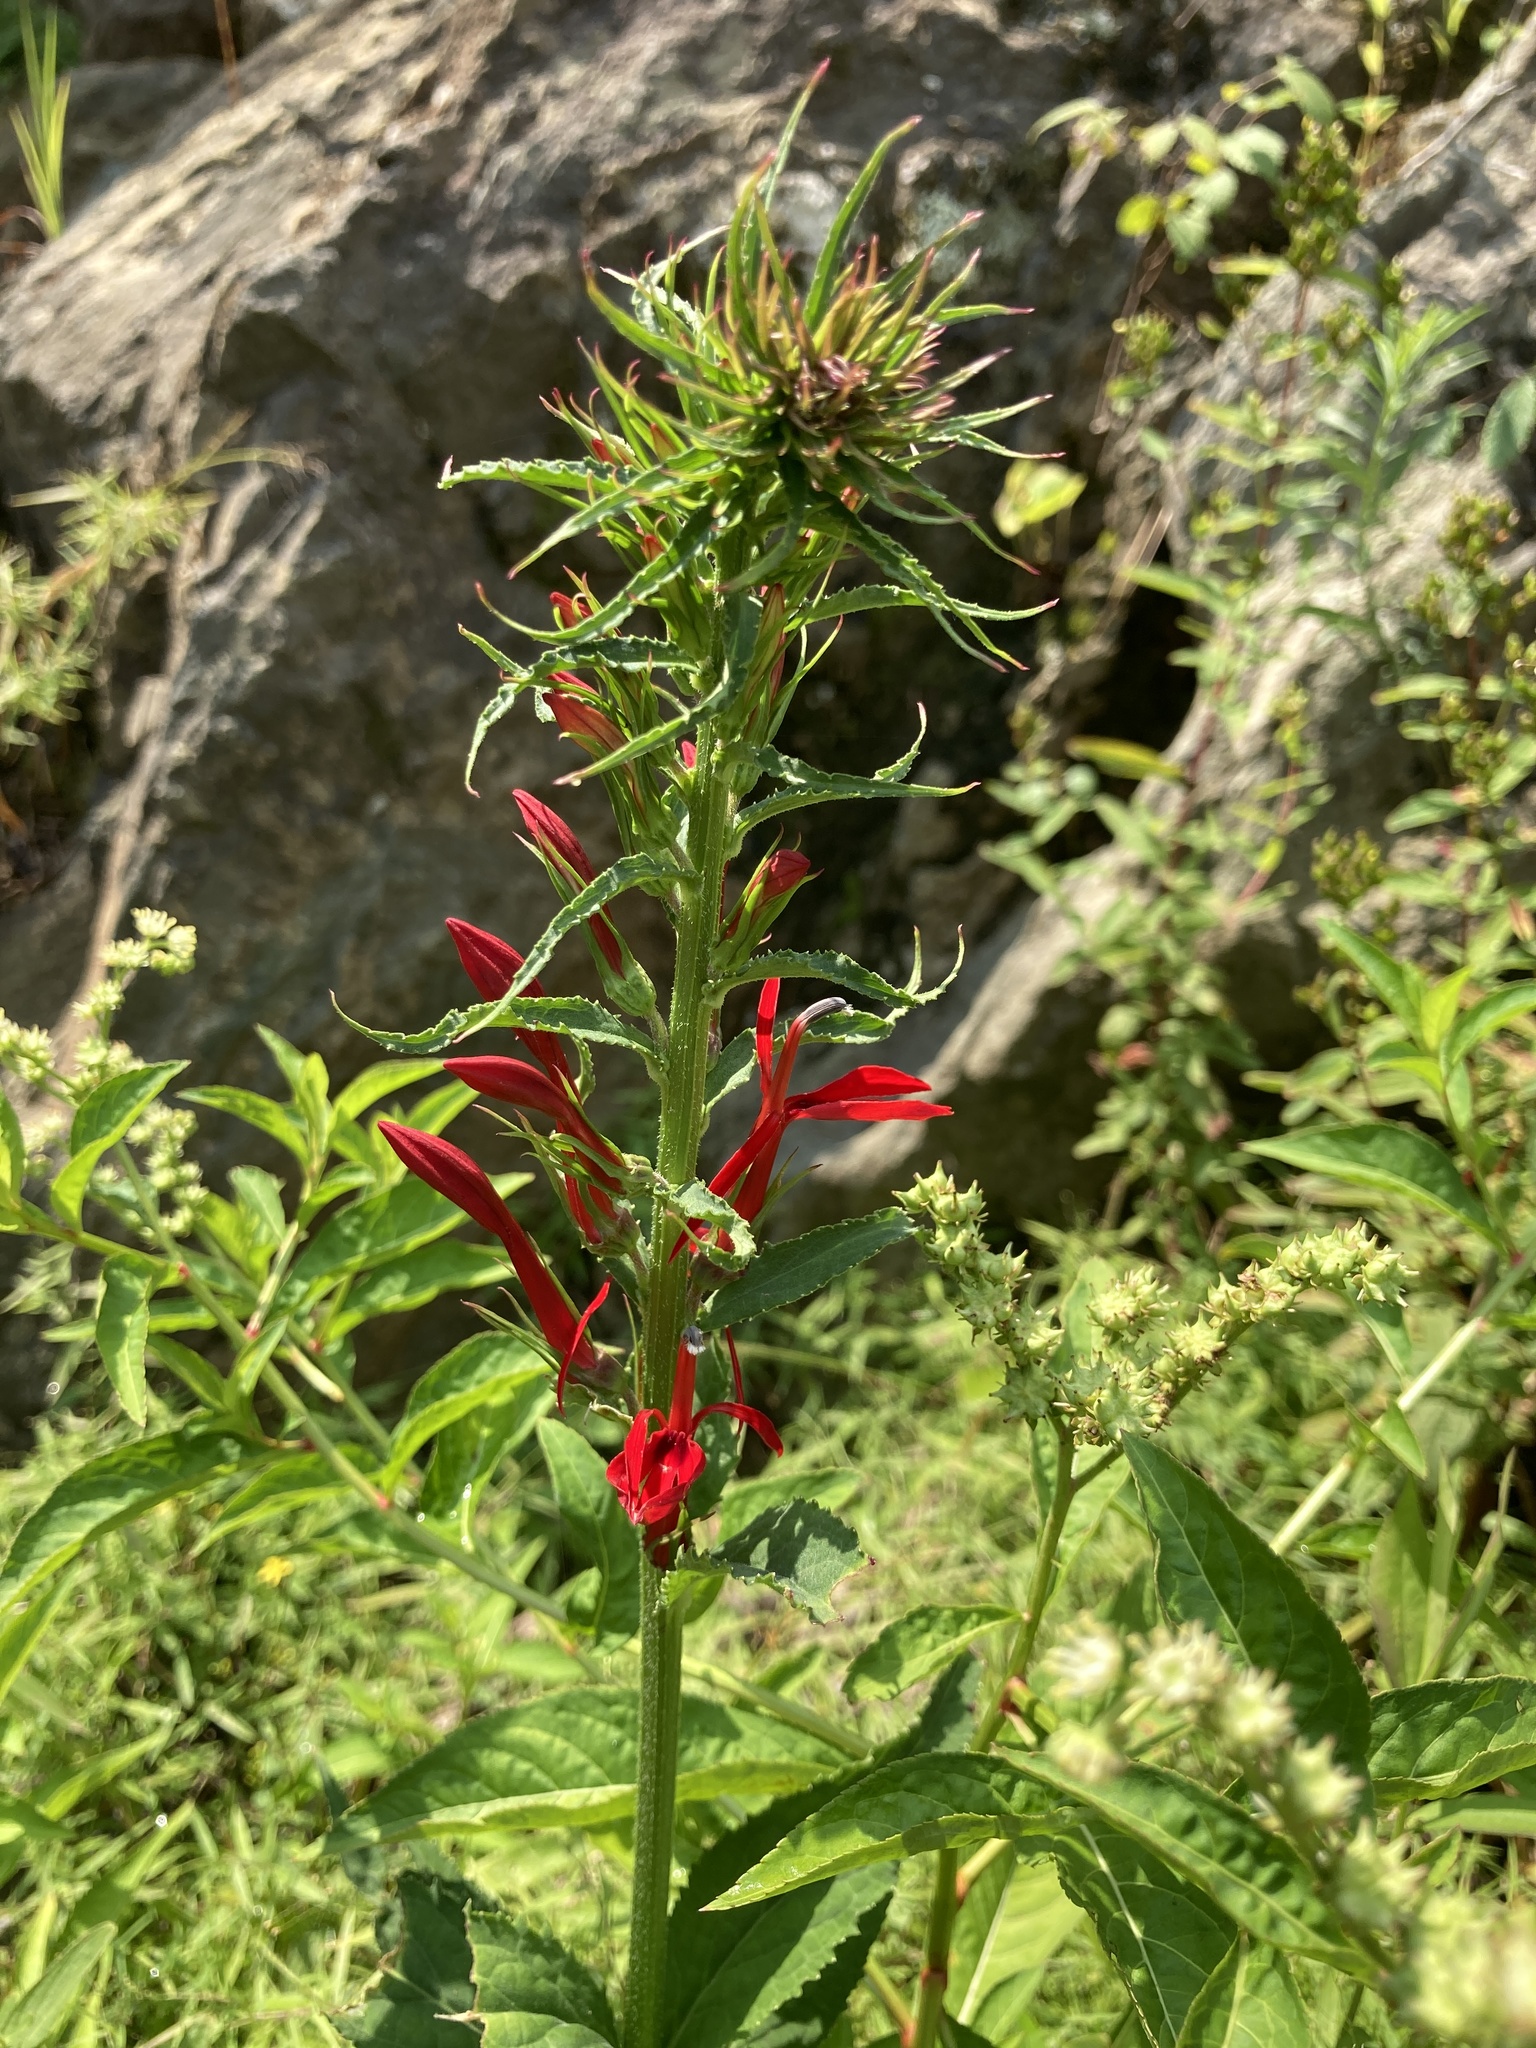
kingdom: Plantae
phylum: Tracheophyta
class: Magnoliopsida
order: Asterales
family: Campanulaceae
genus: Lobelia
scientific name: Lobelia cardinalis
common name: Cardinal flower
